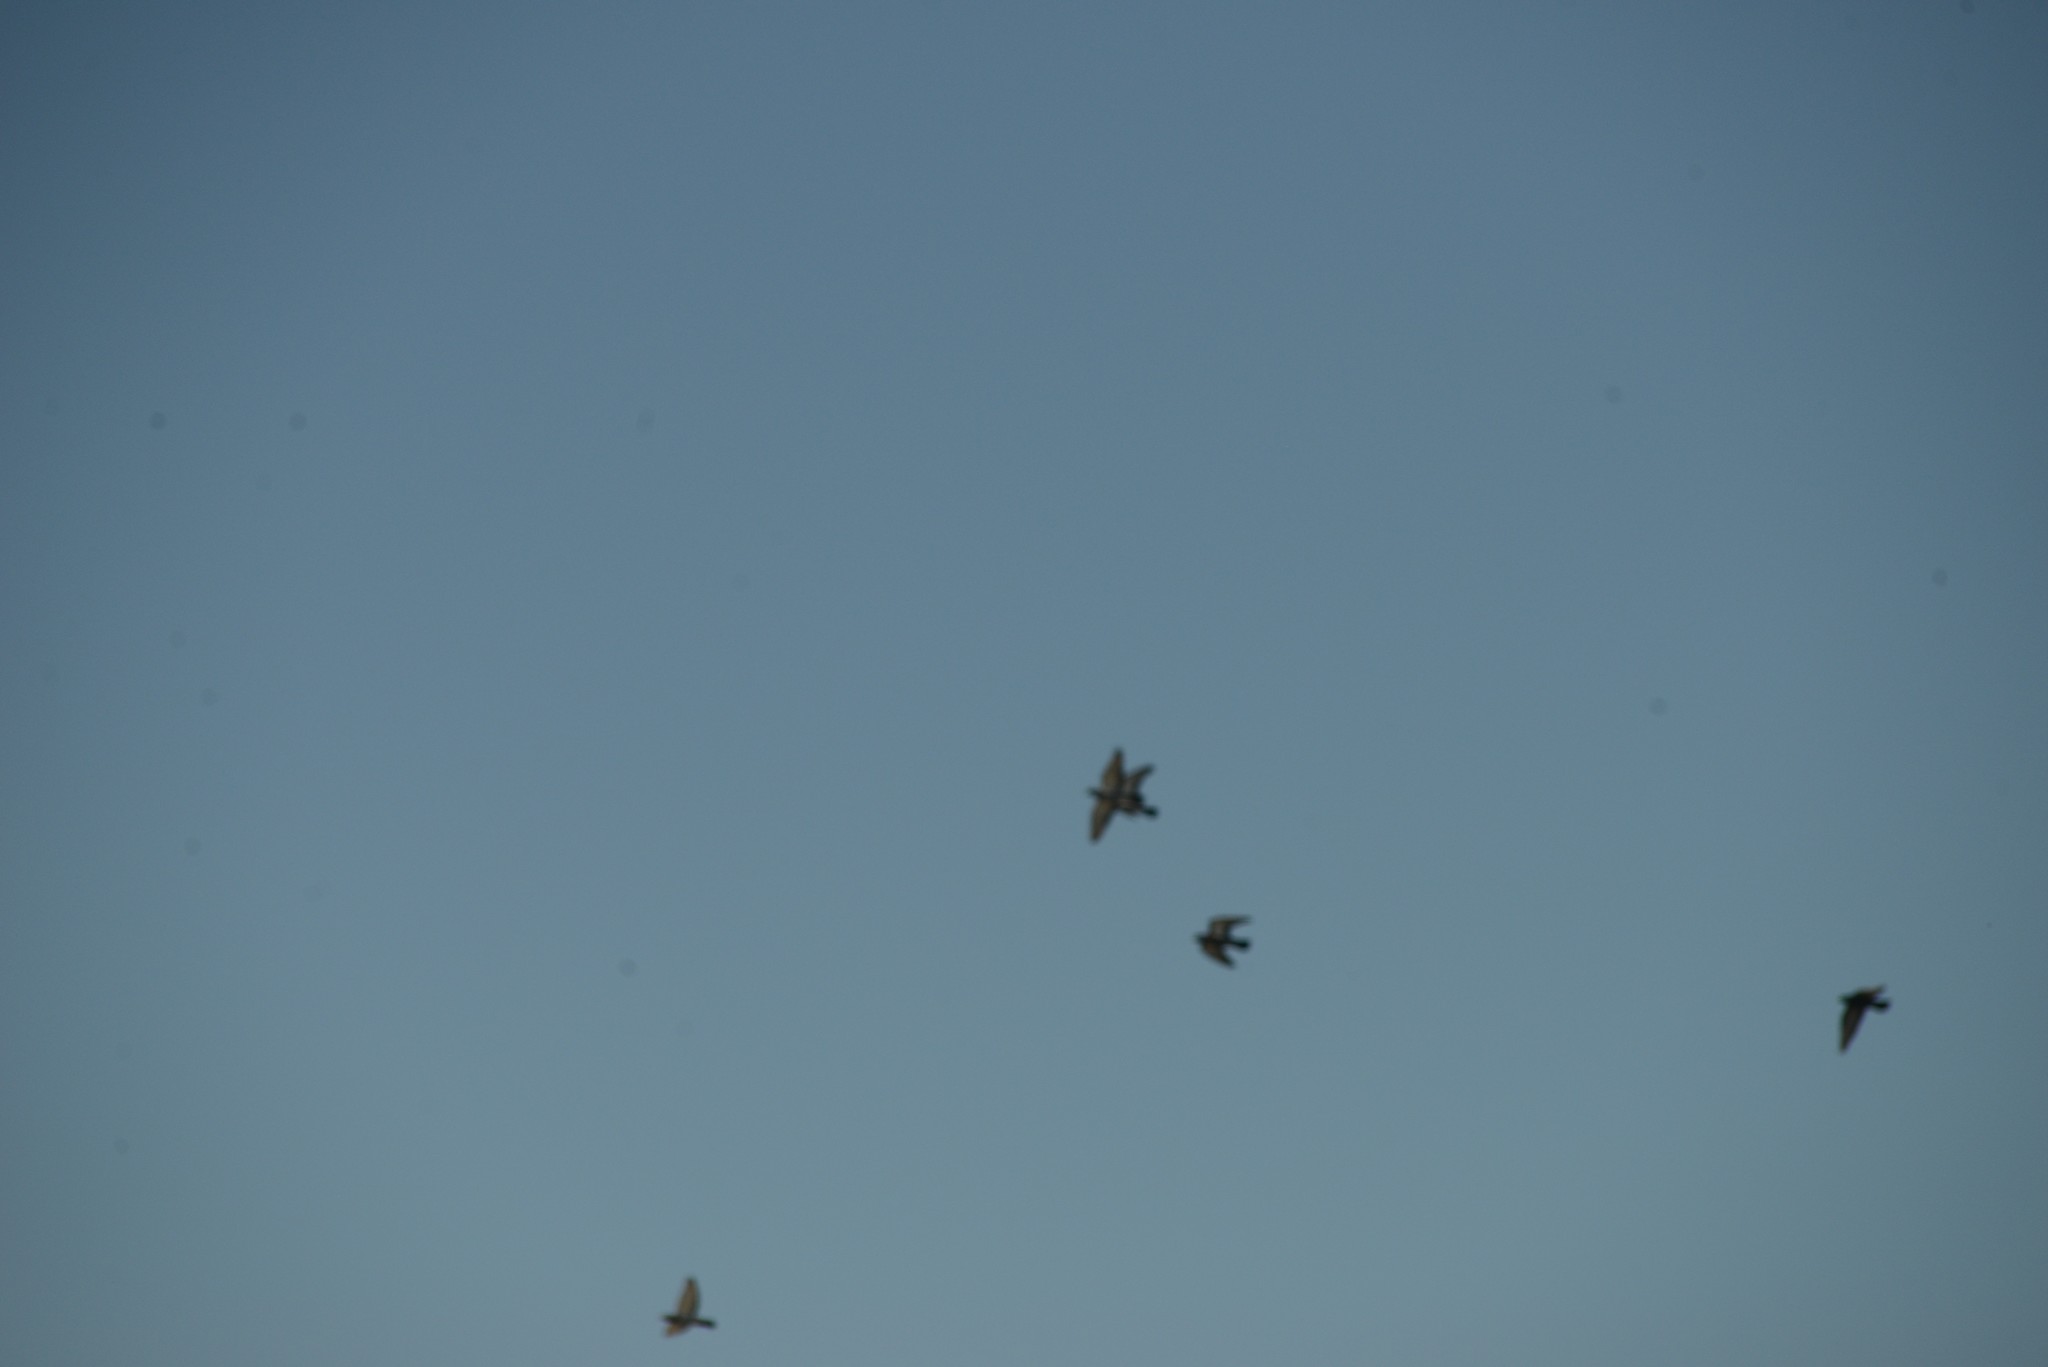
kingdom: Animalia
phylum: Chordata
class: Aves
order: Columbiformes
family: Columbidae
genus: Columba
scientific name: Columba livia
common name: Rock pigeon
